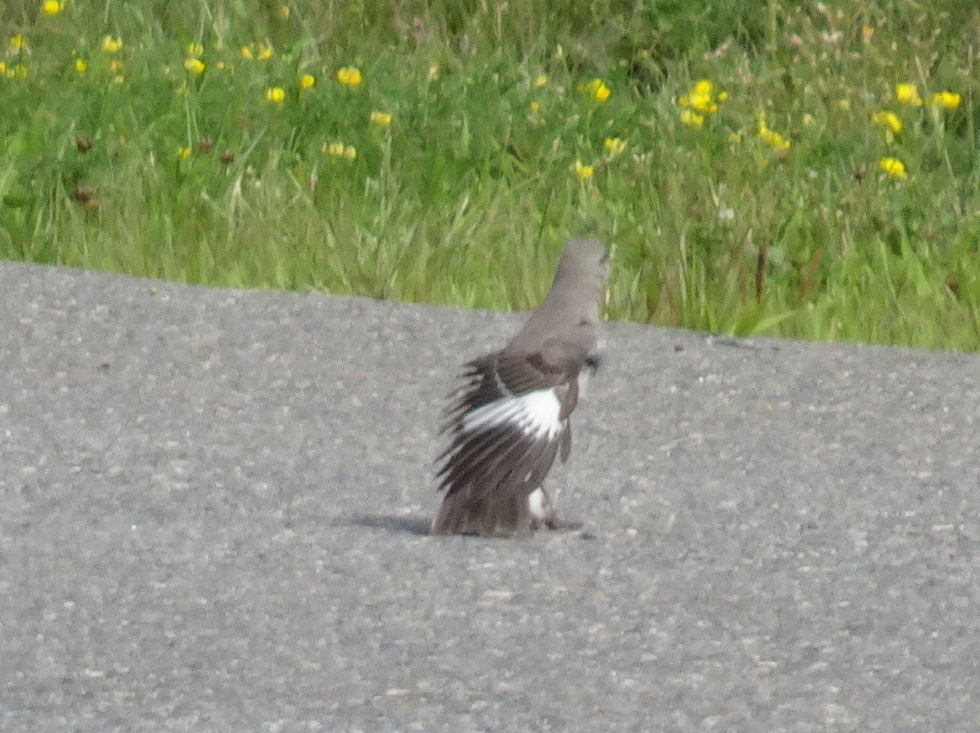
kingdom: Animalia
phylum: Chordata
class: Aves
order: Passeriformes
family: Mimidae
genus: Mimus
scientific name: Mimus polyglottos
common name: Northern mockingbird
